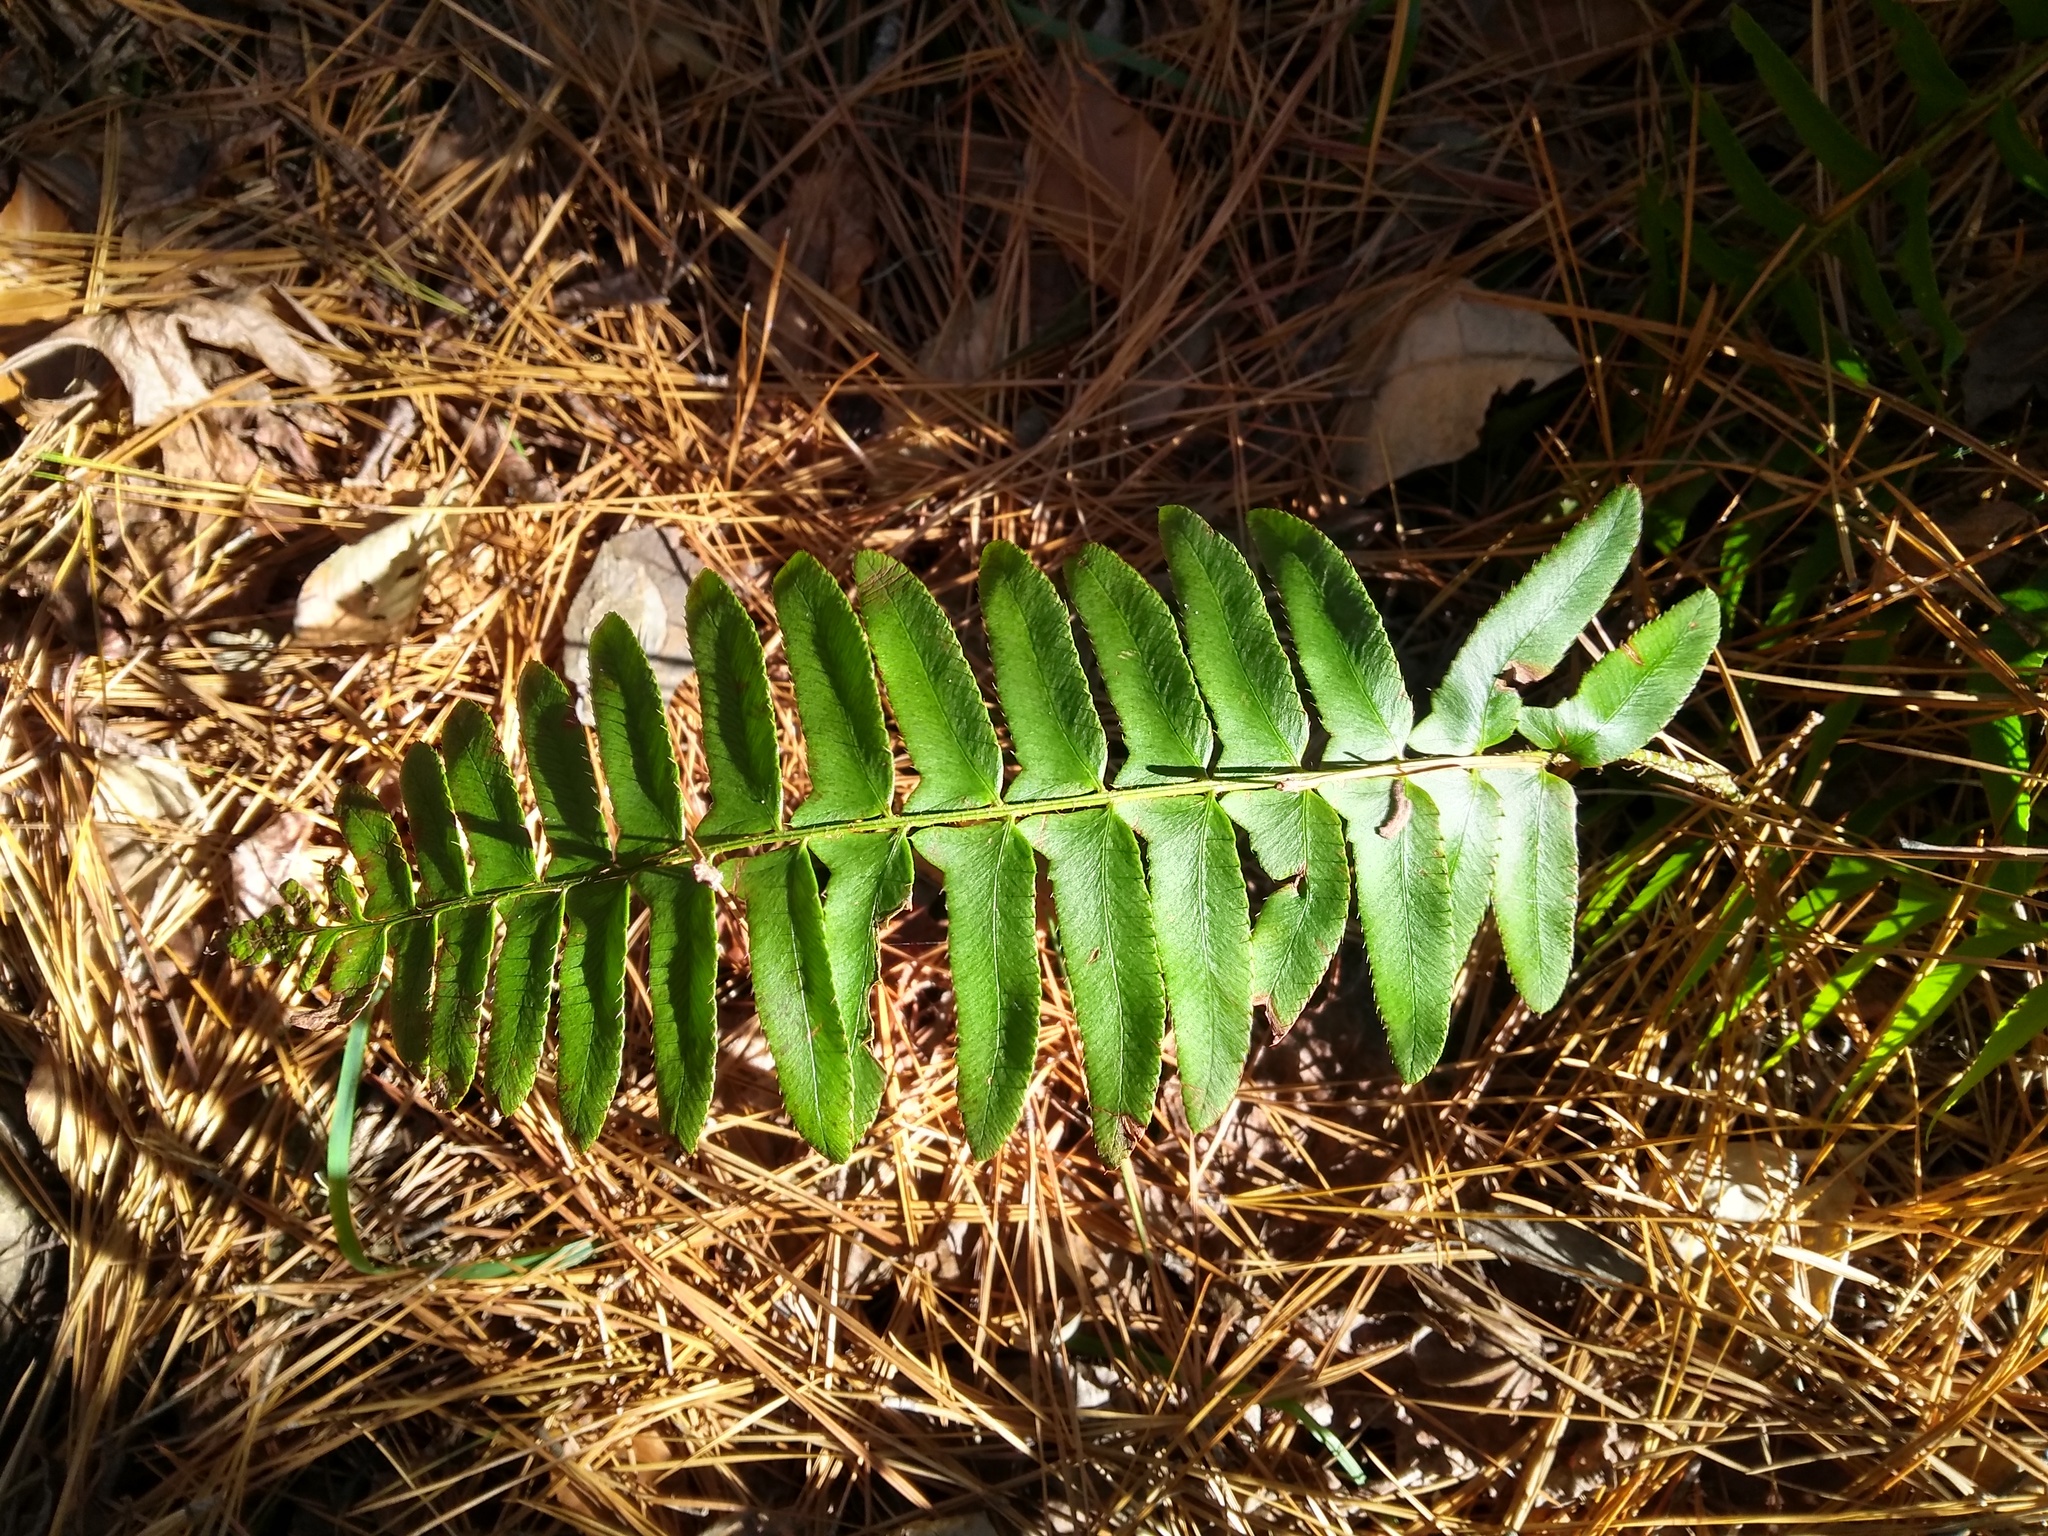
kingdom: Plantae
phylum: Tracheophyta
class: Polypodiopsida
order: Polypodiales
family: Dryopteridaceae
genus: Polystichum
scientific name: Polystichum acrostichoides
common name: Christmas fern
